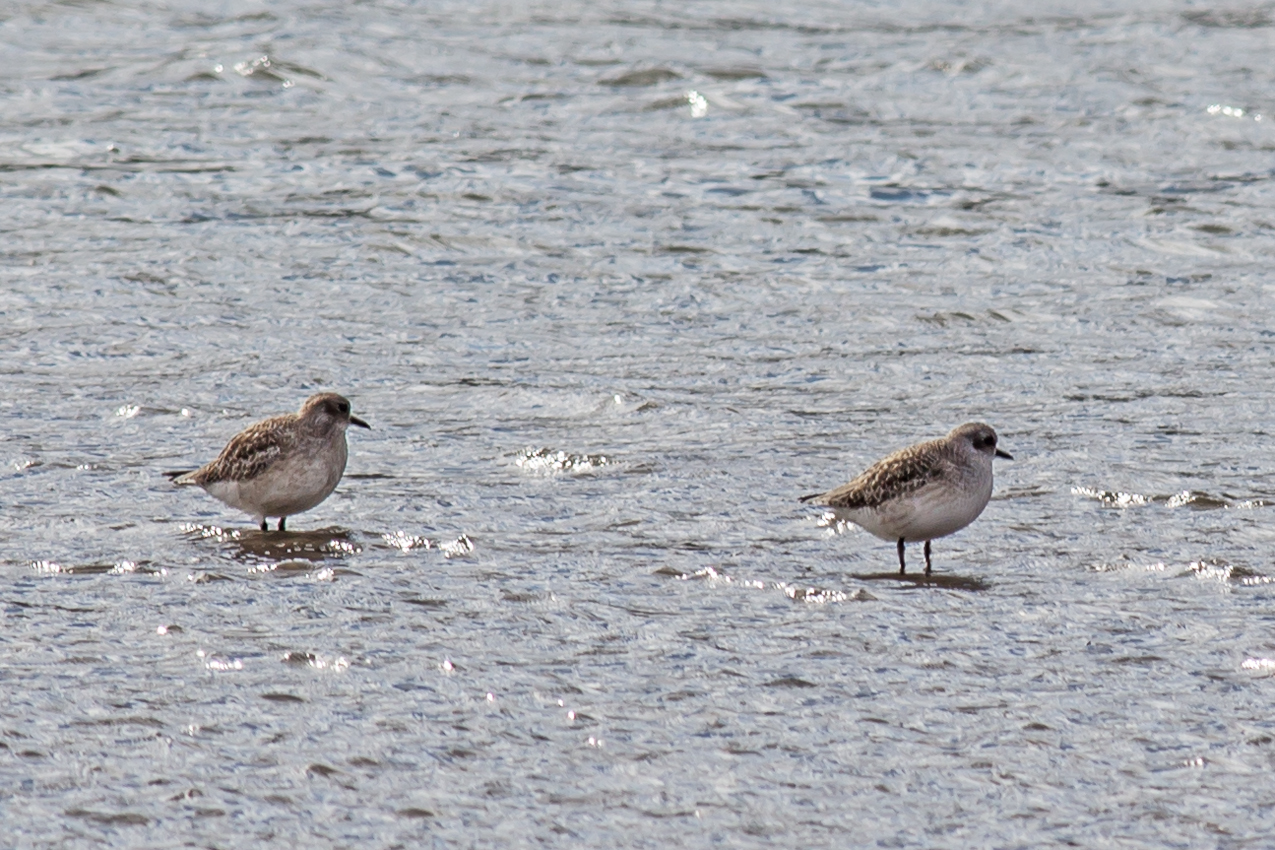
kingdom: Animalia
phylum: Chordata
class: Aves
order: Charadriiformes
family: Charadriidae
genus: Pluvialis
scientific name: Pluvialis squatarola
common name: Grey plover
